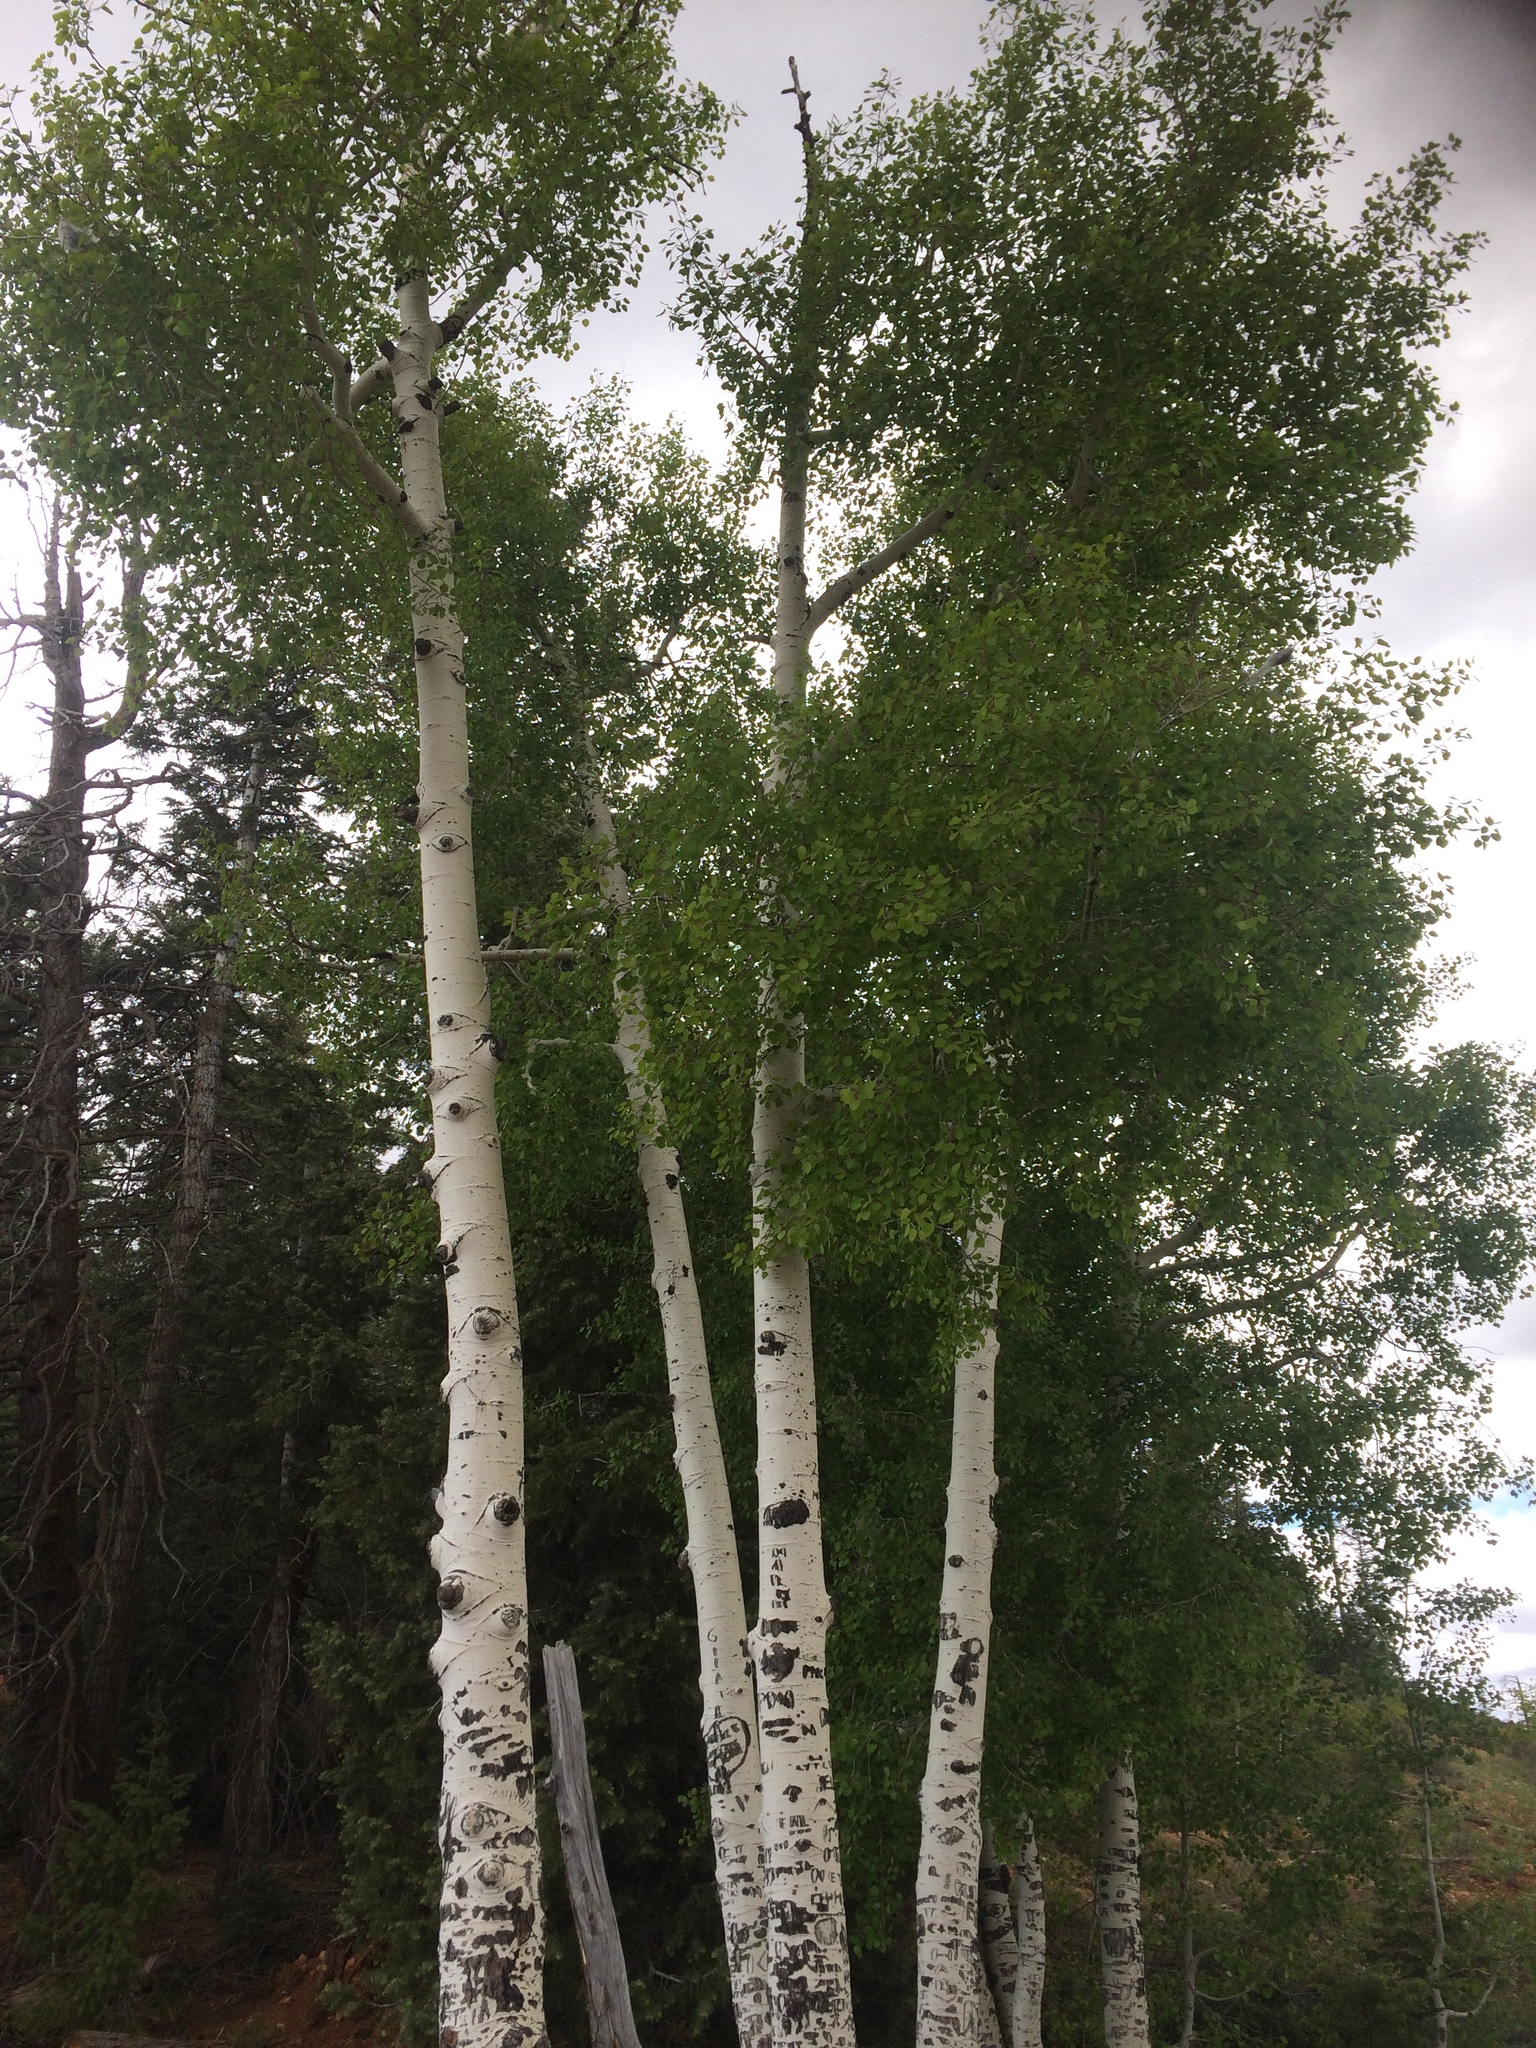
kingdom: Plantae
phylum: Tracheophyta
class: Magnoliopsida
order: Malpighiales
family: Salicaceae
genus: Populus
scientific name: Populus tremuloides
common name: Quaking aspen
